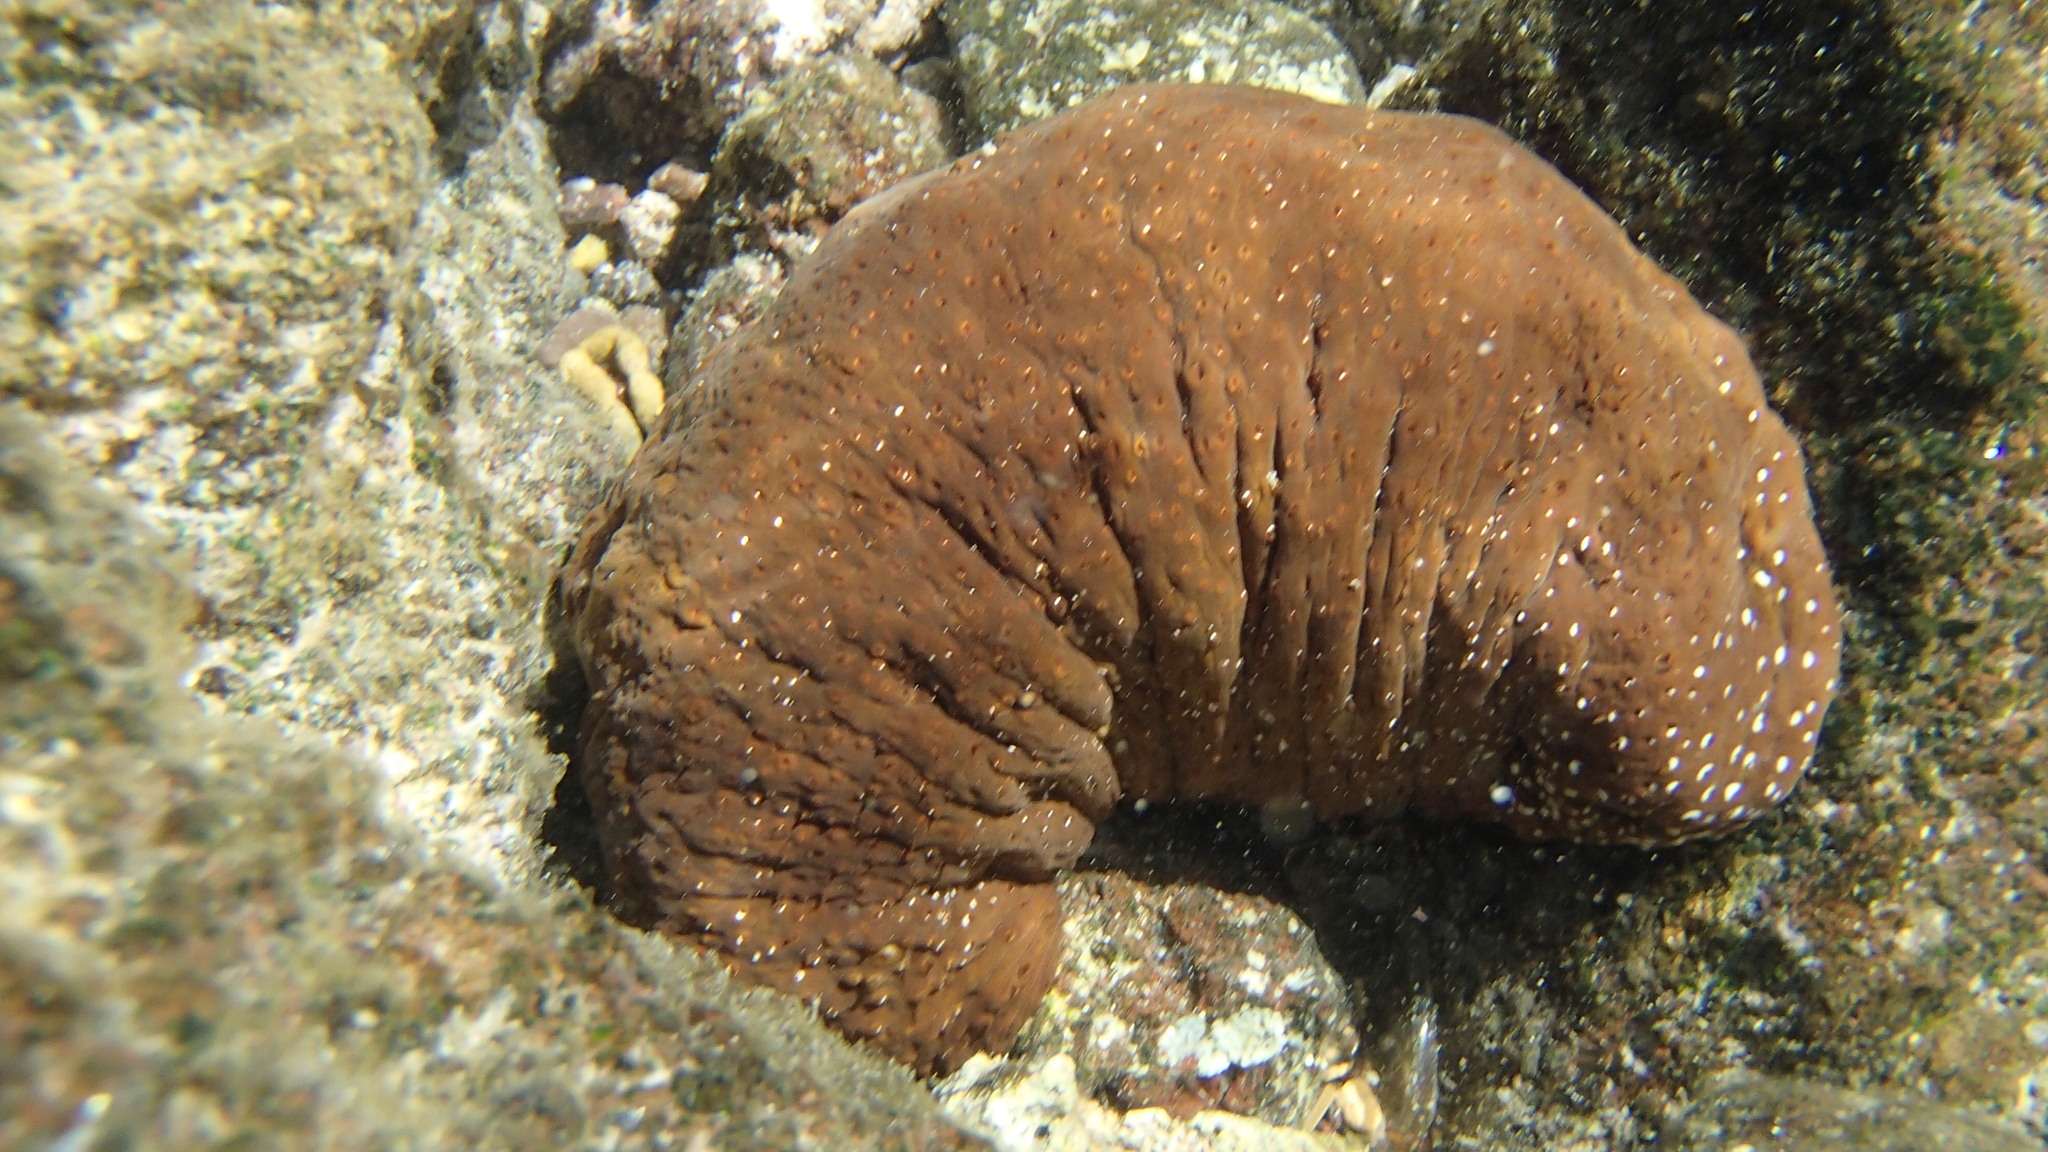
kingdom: Animalia
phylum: Echinodermata
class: Holothuroidea
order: Holothuriida
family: Holothuriidae
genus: Actinopyga
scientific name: Actinopyga varians
